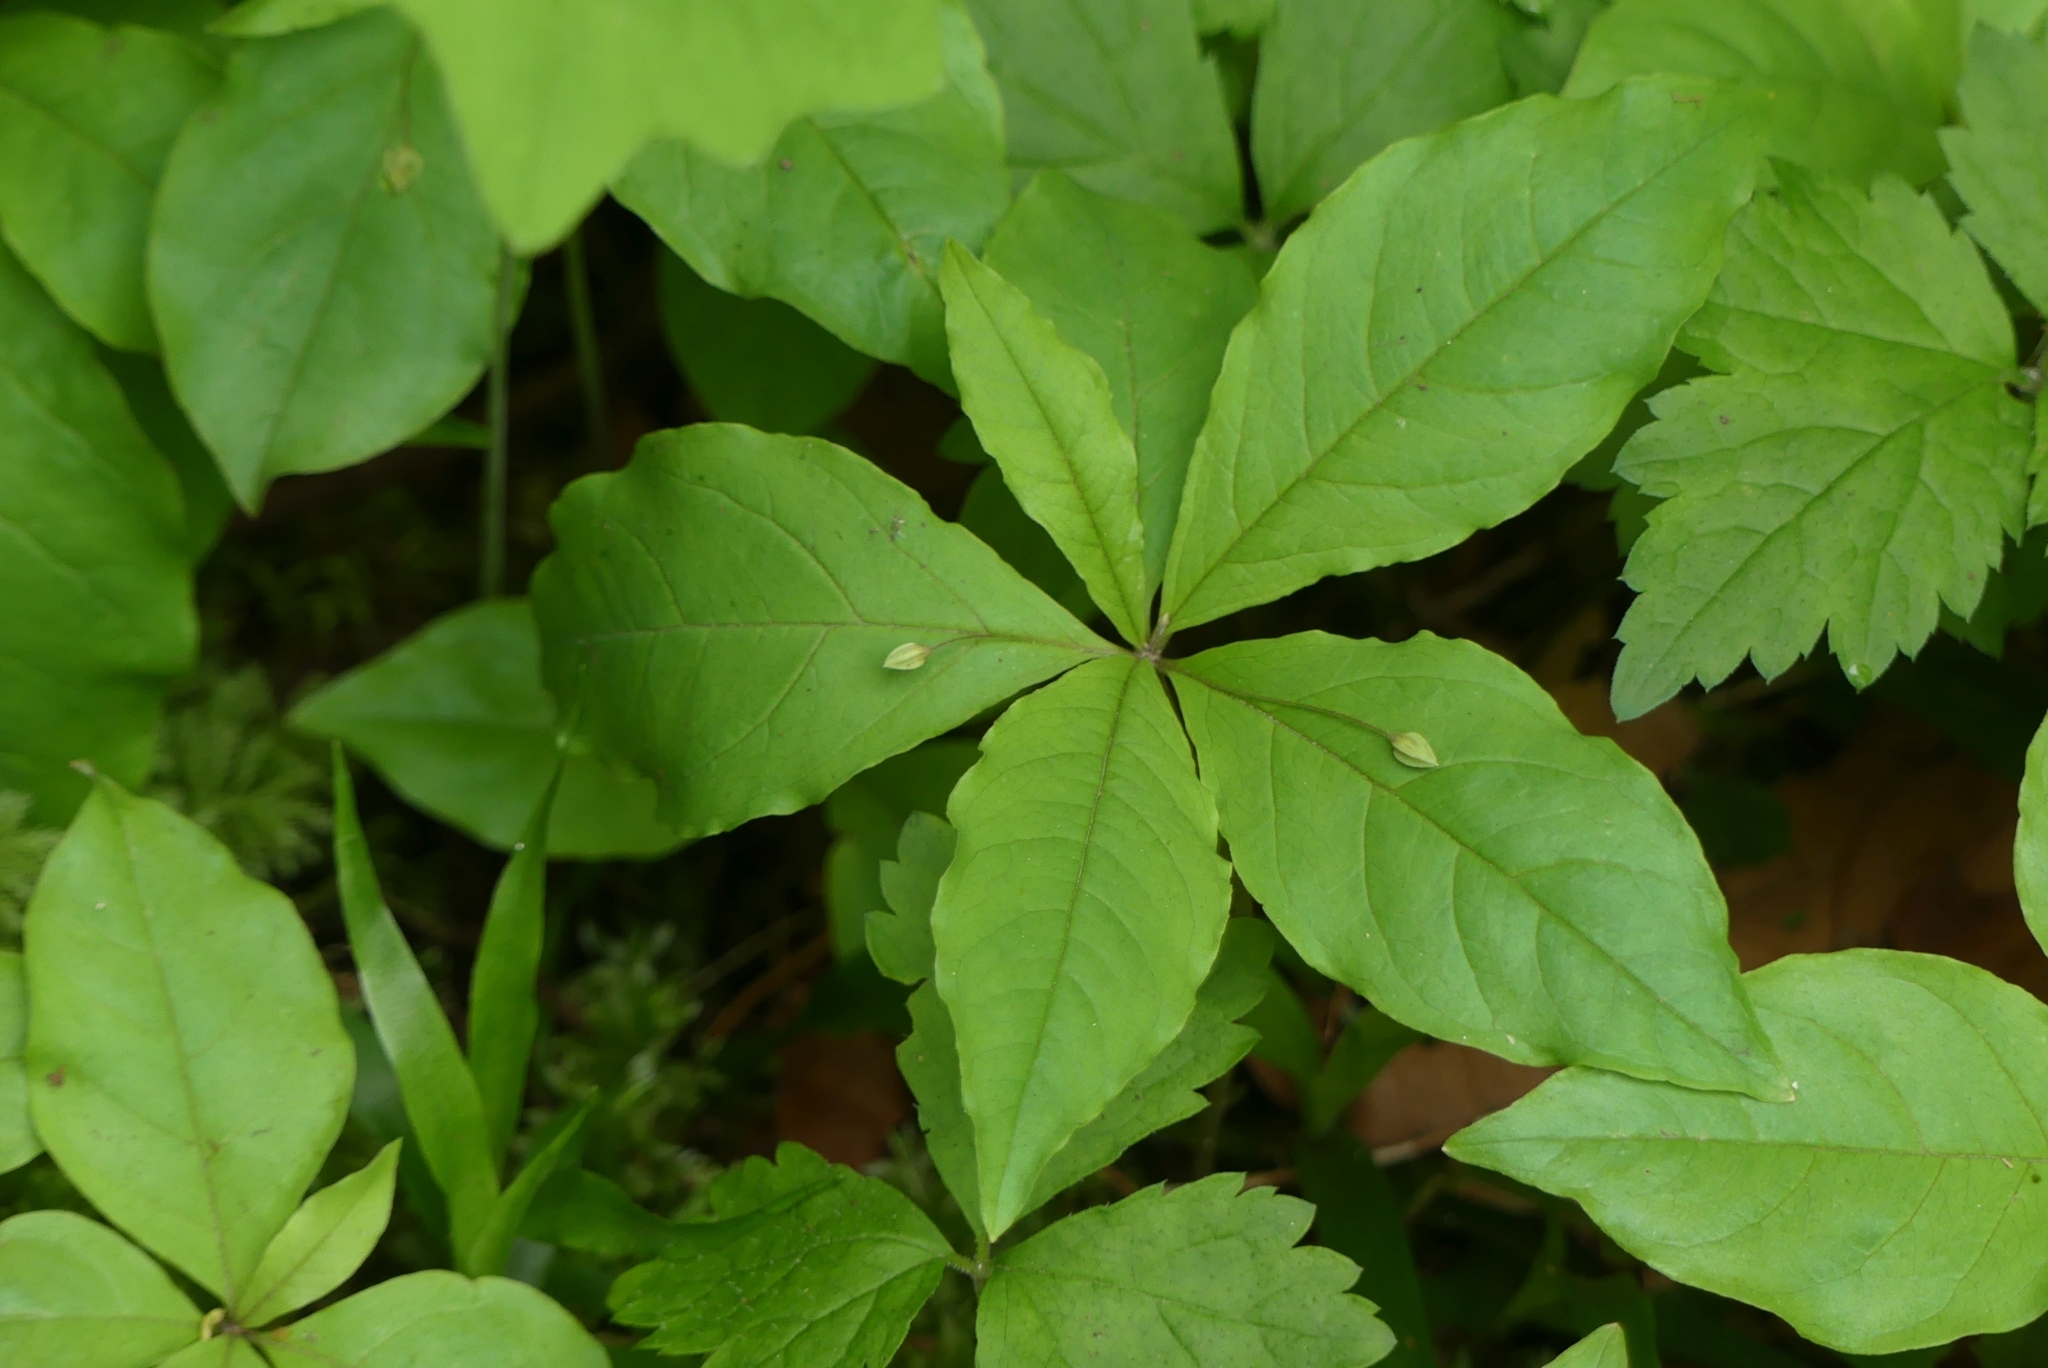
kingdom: Plantae
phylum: Tracheophyta
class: Magnoliopsida
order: Ericales
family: Primulaceae
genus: Lysimachia
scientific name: Lysimachia latifolia
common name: Pacific starflower
